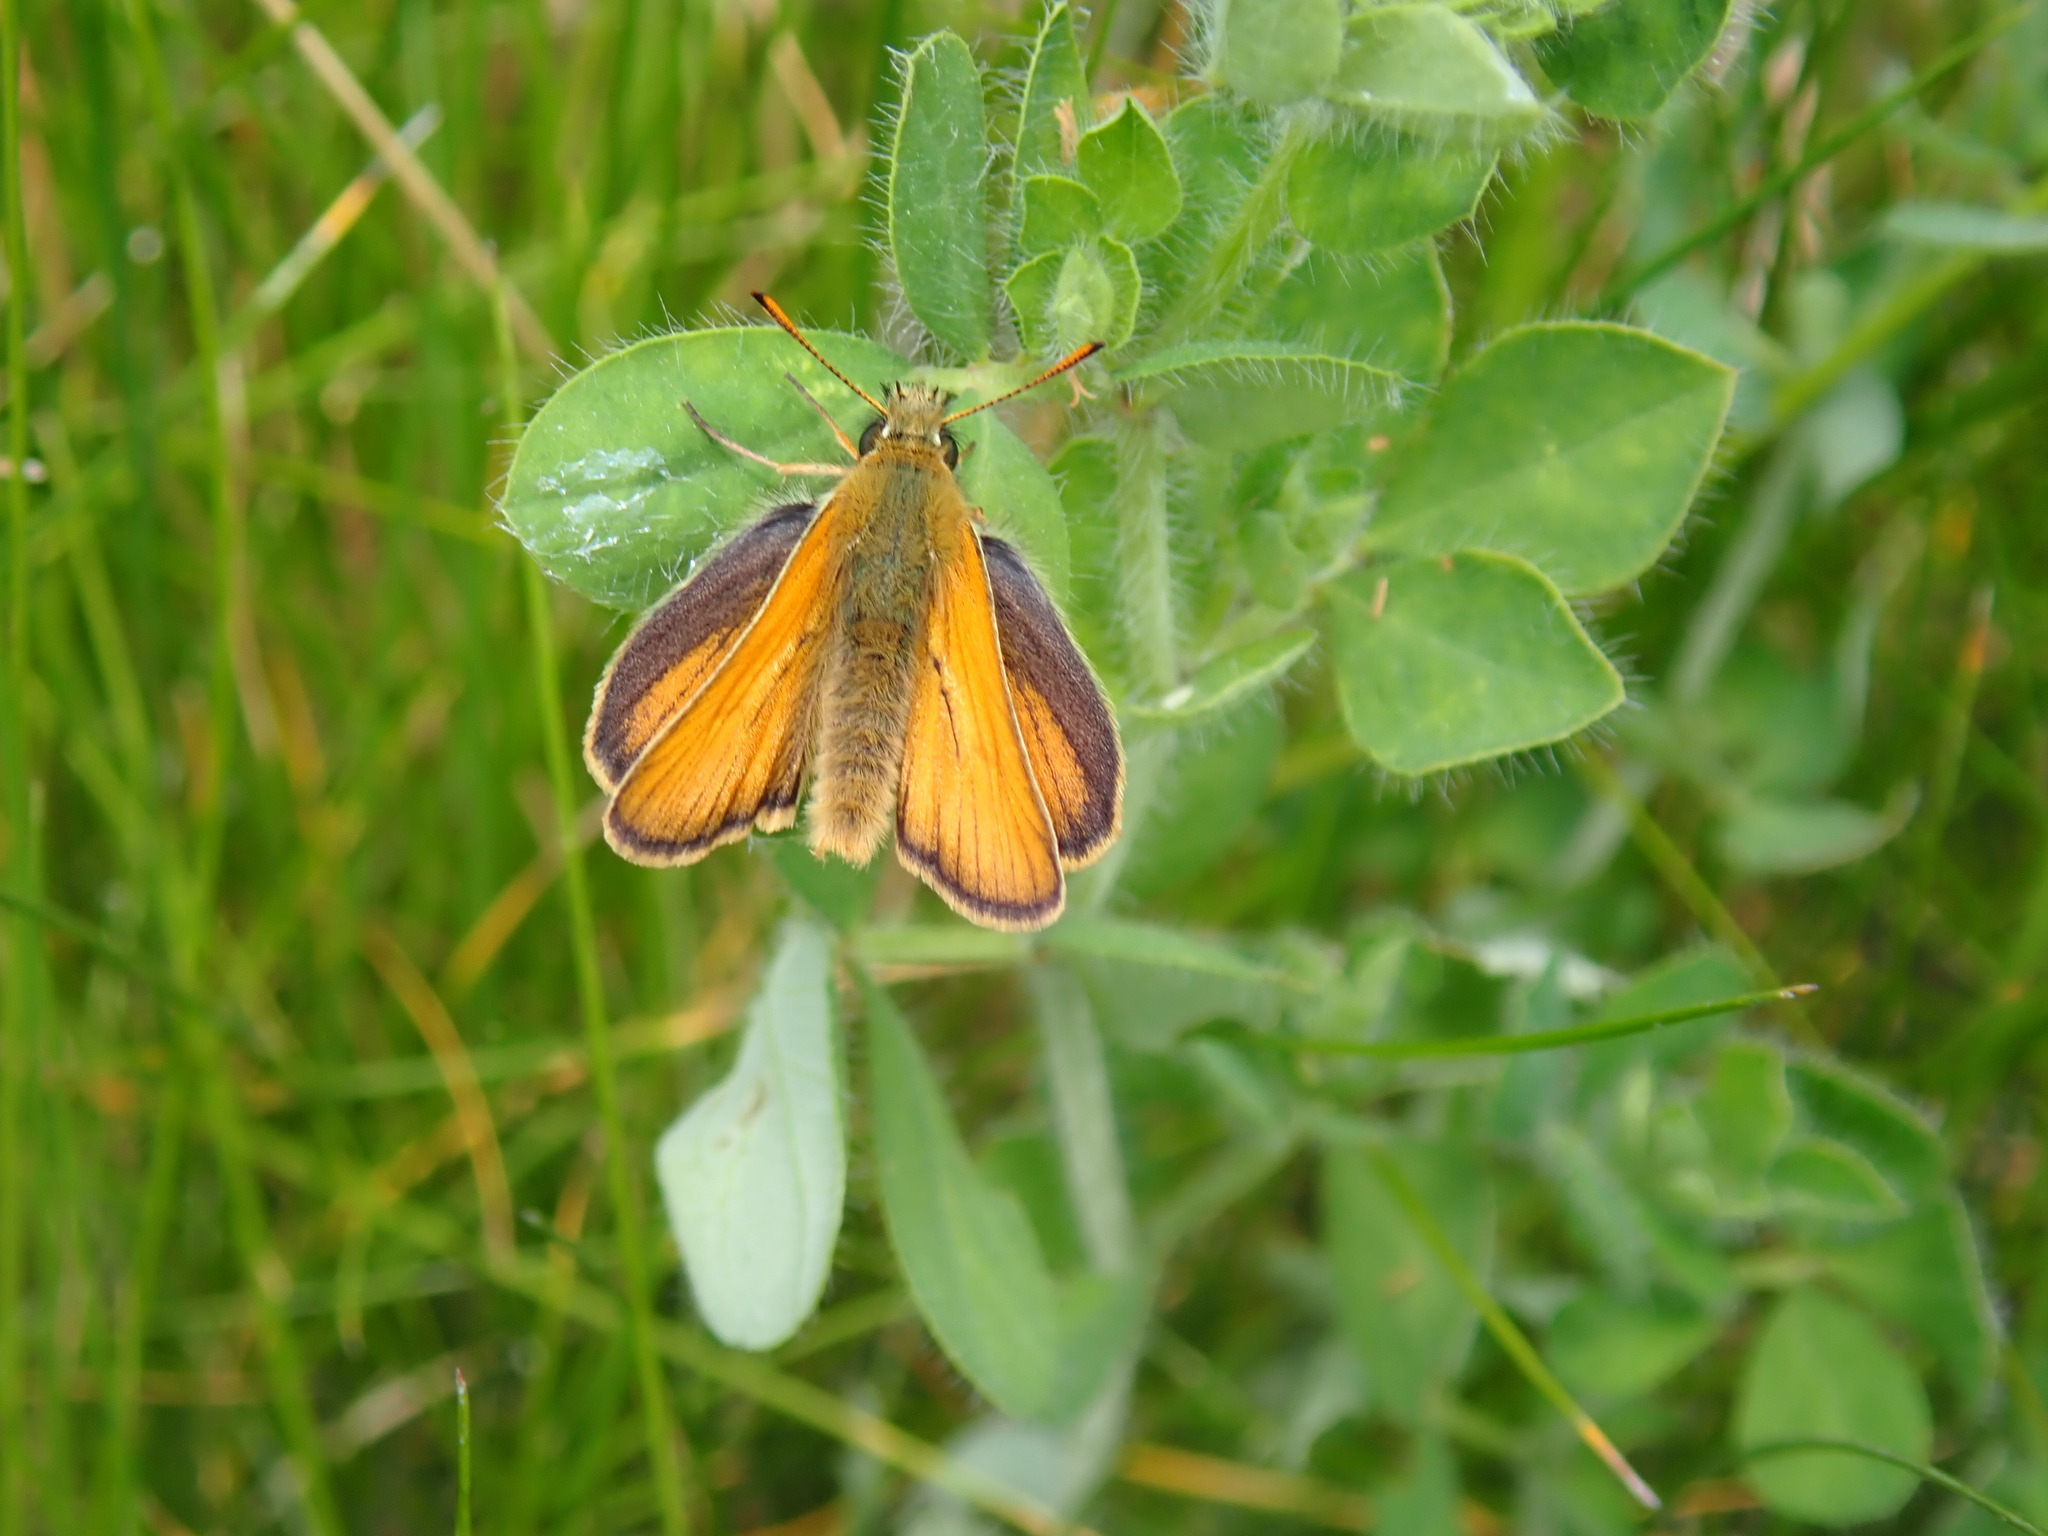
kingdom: Animalia
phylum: Arthropoda
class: Insecta
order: Lepidoptera
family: Hesperiidae
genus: Thymelicus
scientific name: Thymelicus sylvestris
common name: Small skipper
